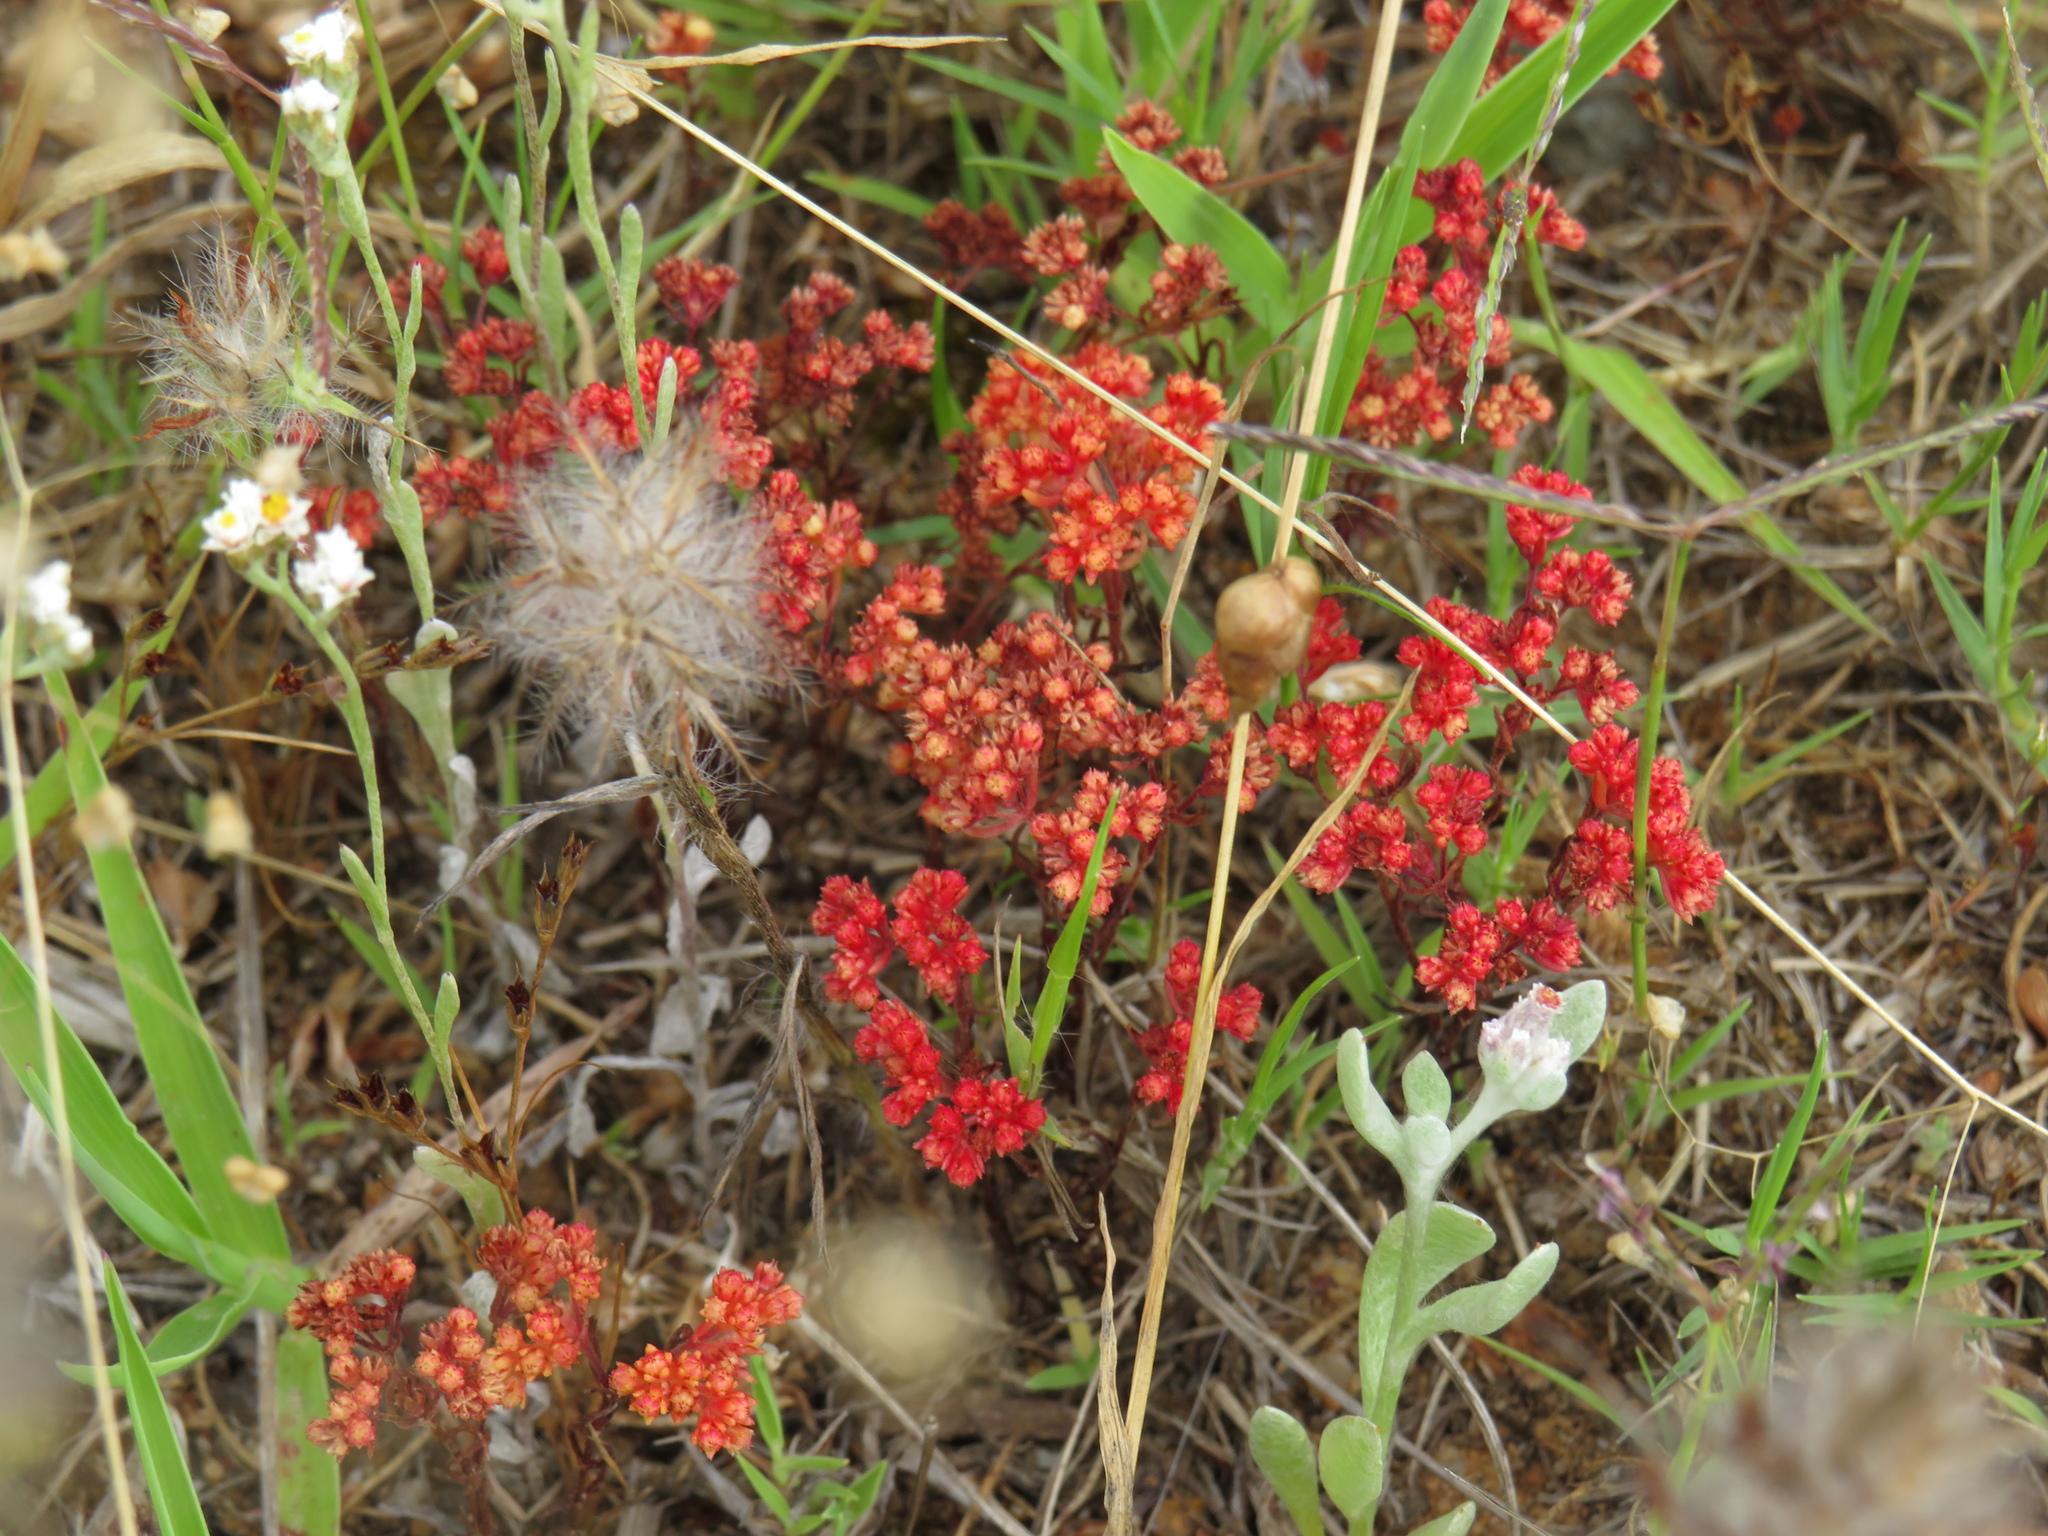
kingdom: Plantae
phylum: Tracheophyta
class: Magnoliopsida
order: Saxifragales
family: Crassulaceae
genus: Crassula
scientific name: Crassula glomerata
